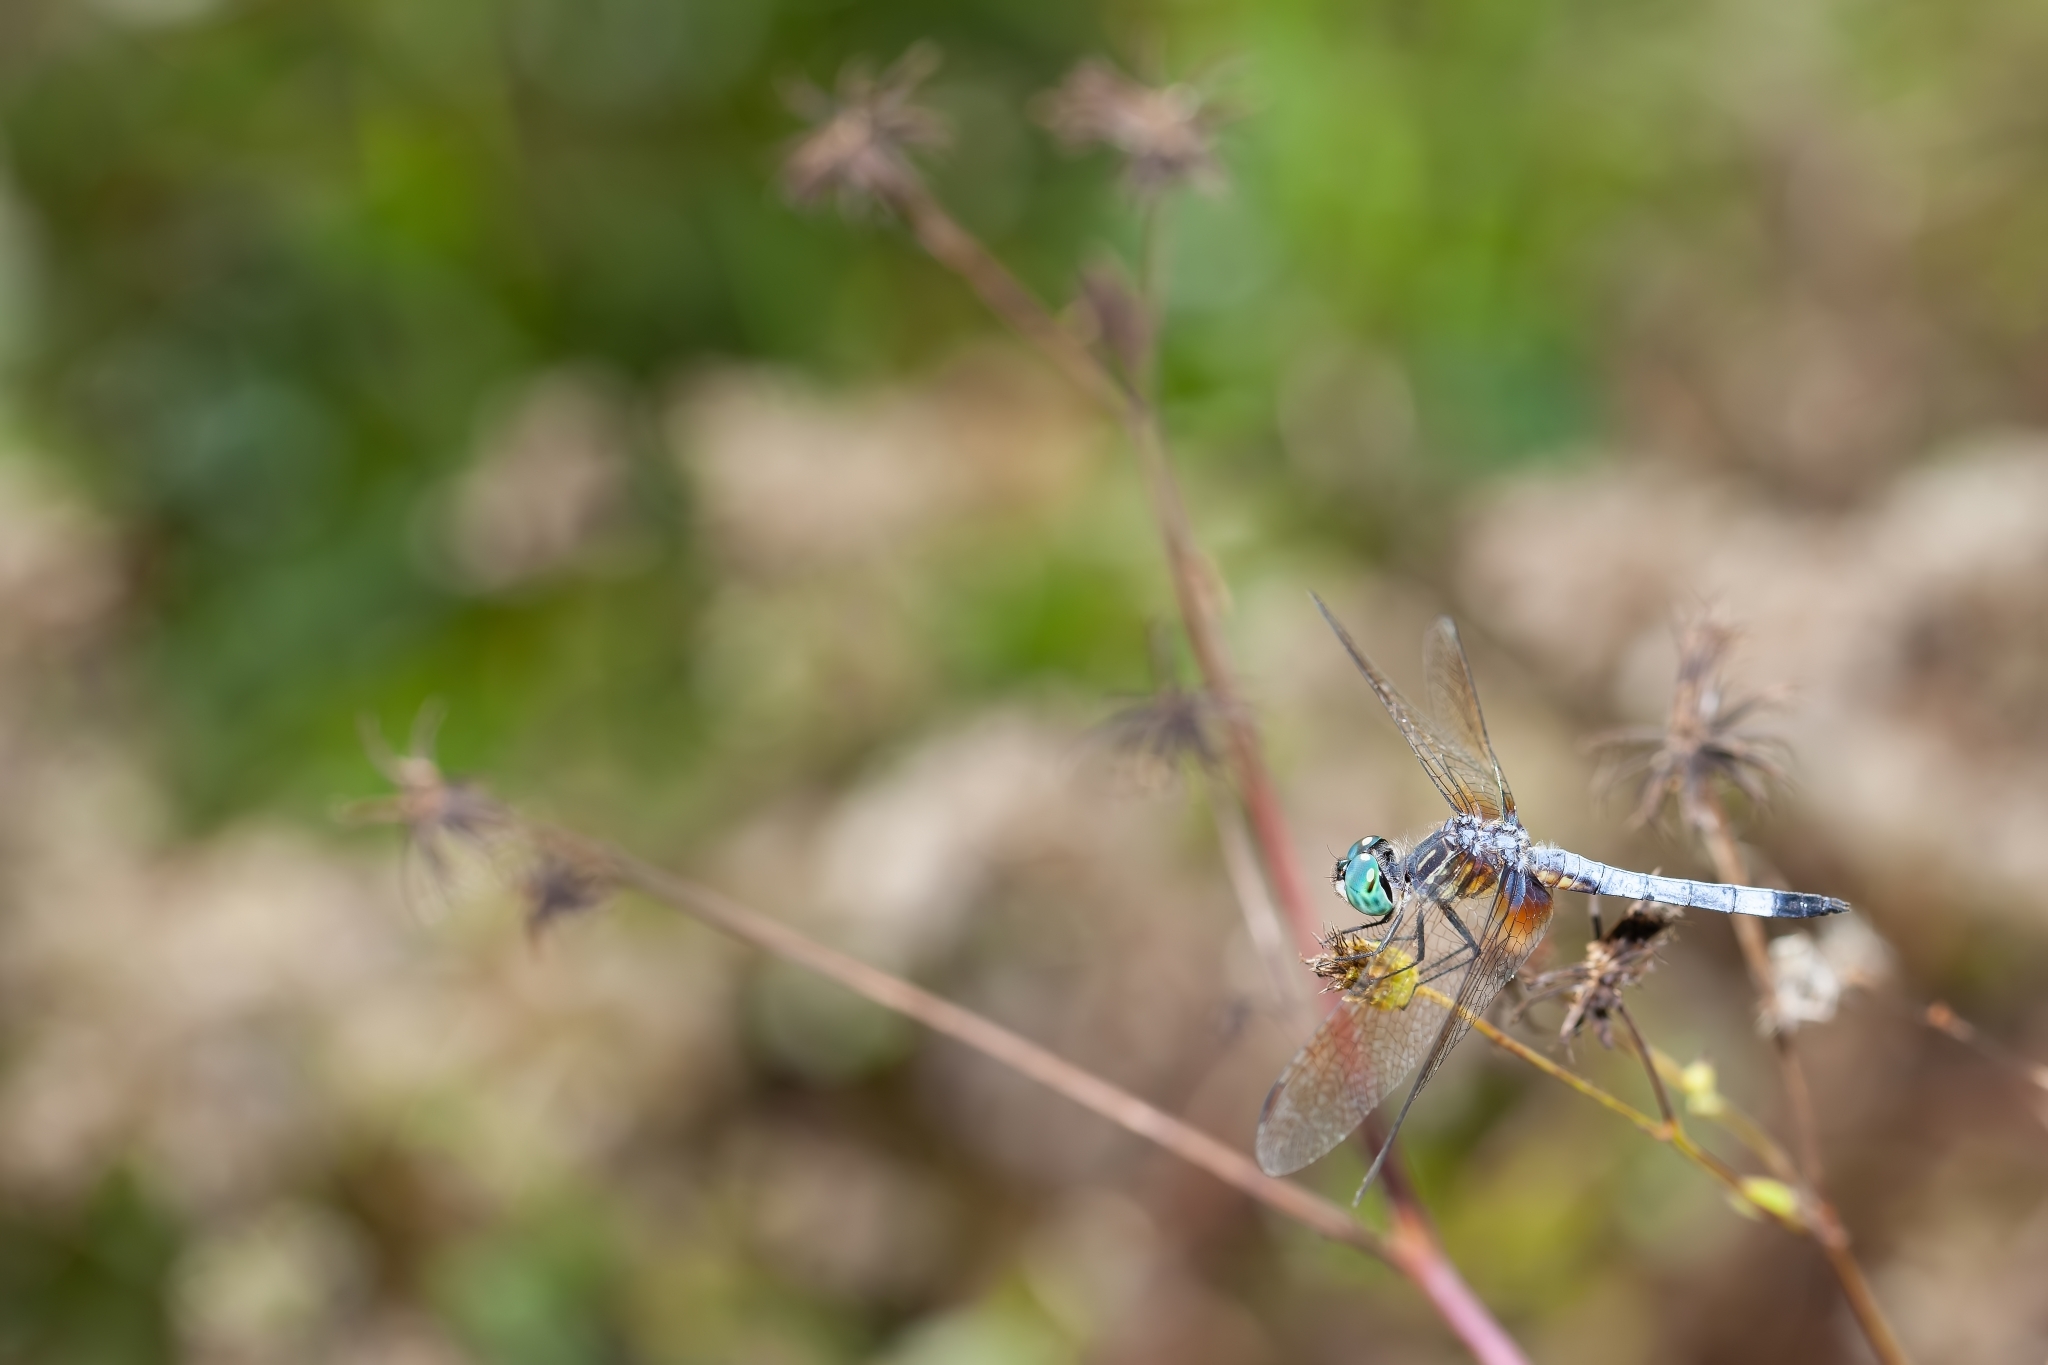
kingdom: Animalia
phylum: Arthropoda
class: Insecta
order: Odonata
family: Libellulidae
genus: Pachydiplax
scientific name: Pachydiplax longipennis
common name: Blue dasher
